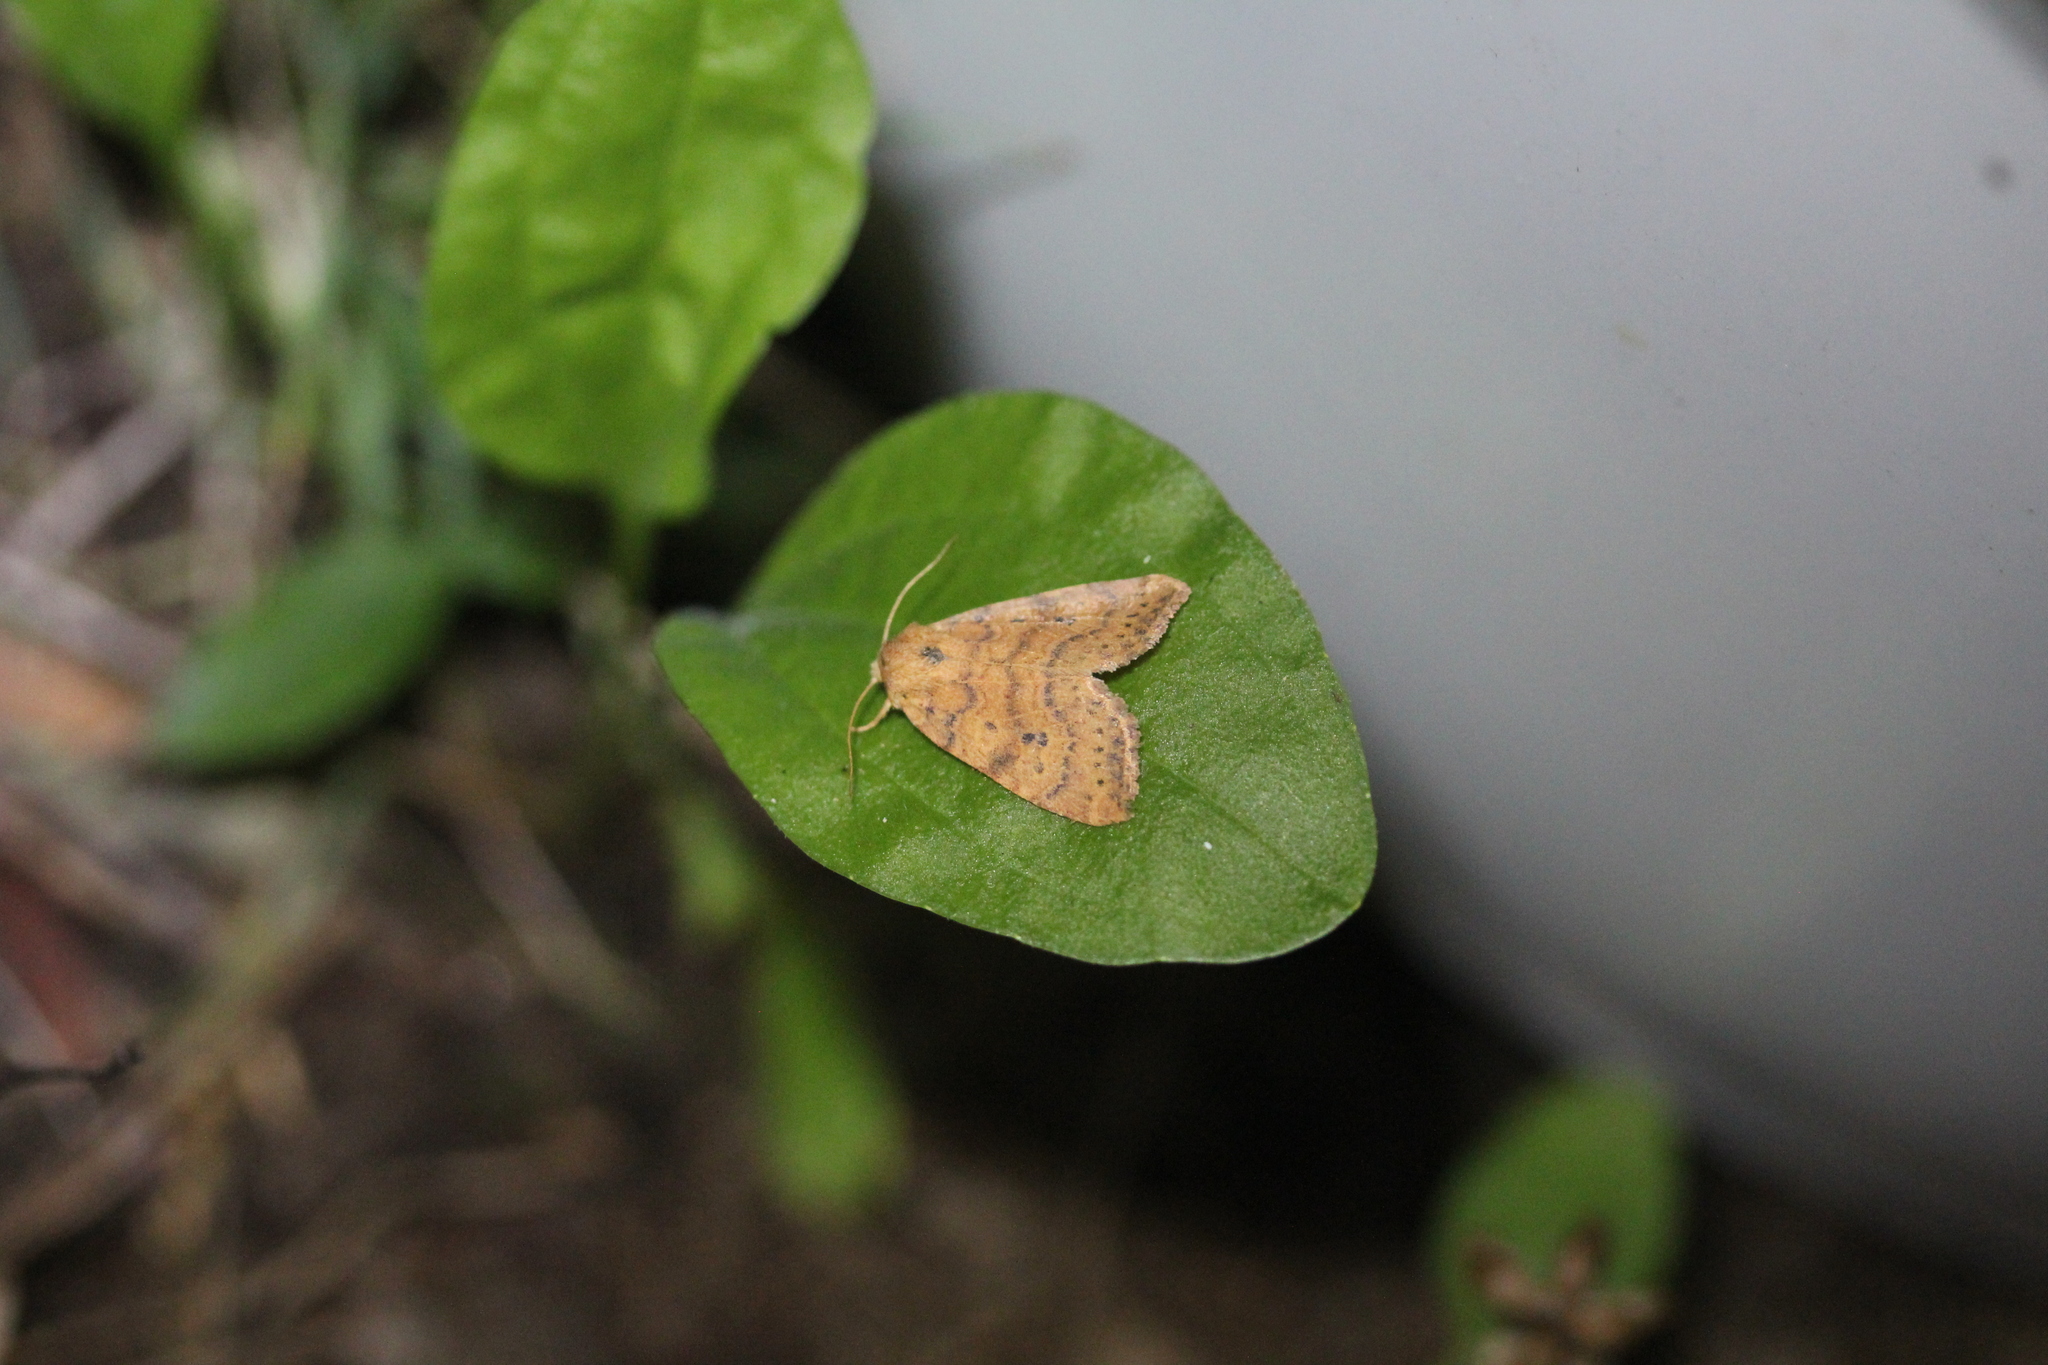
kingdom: Animalia
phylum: Arthropoda
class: Insecta
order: Lepidoptera
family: Noctuidae
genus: Anathix
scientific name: Anathix ralla
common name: Dotted sallow
